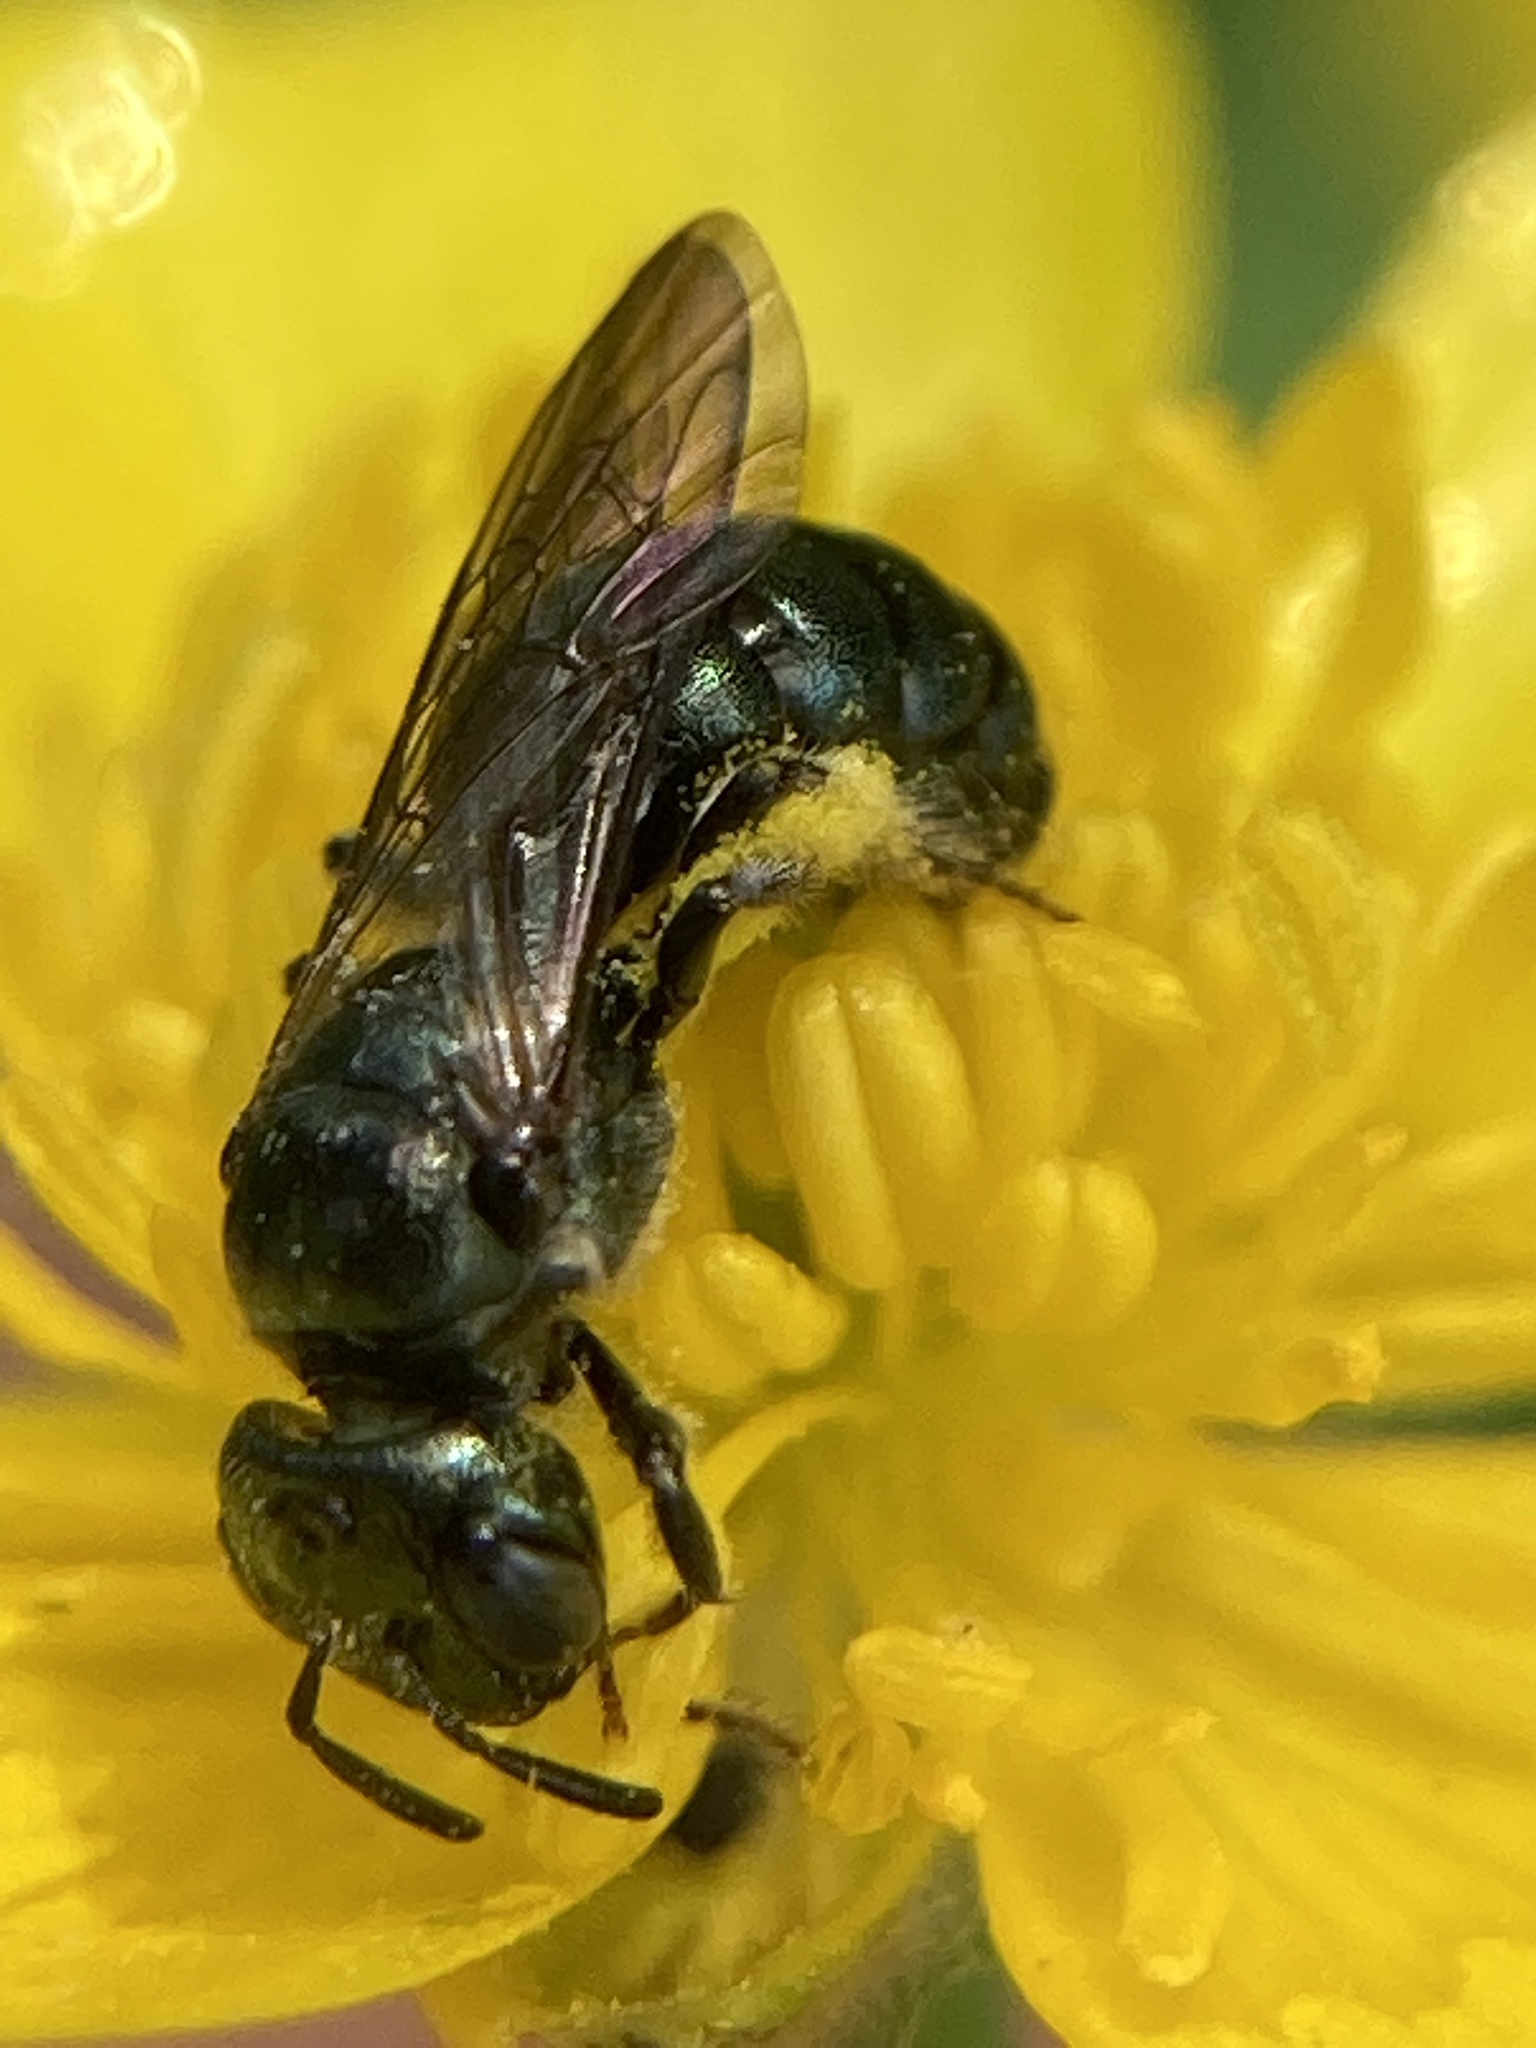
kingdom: Animalia
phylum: Arthropoda
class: Insecta
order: Hymenoptera
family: Apidae
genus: Zadontomerus
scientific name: Zadontomerus
